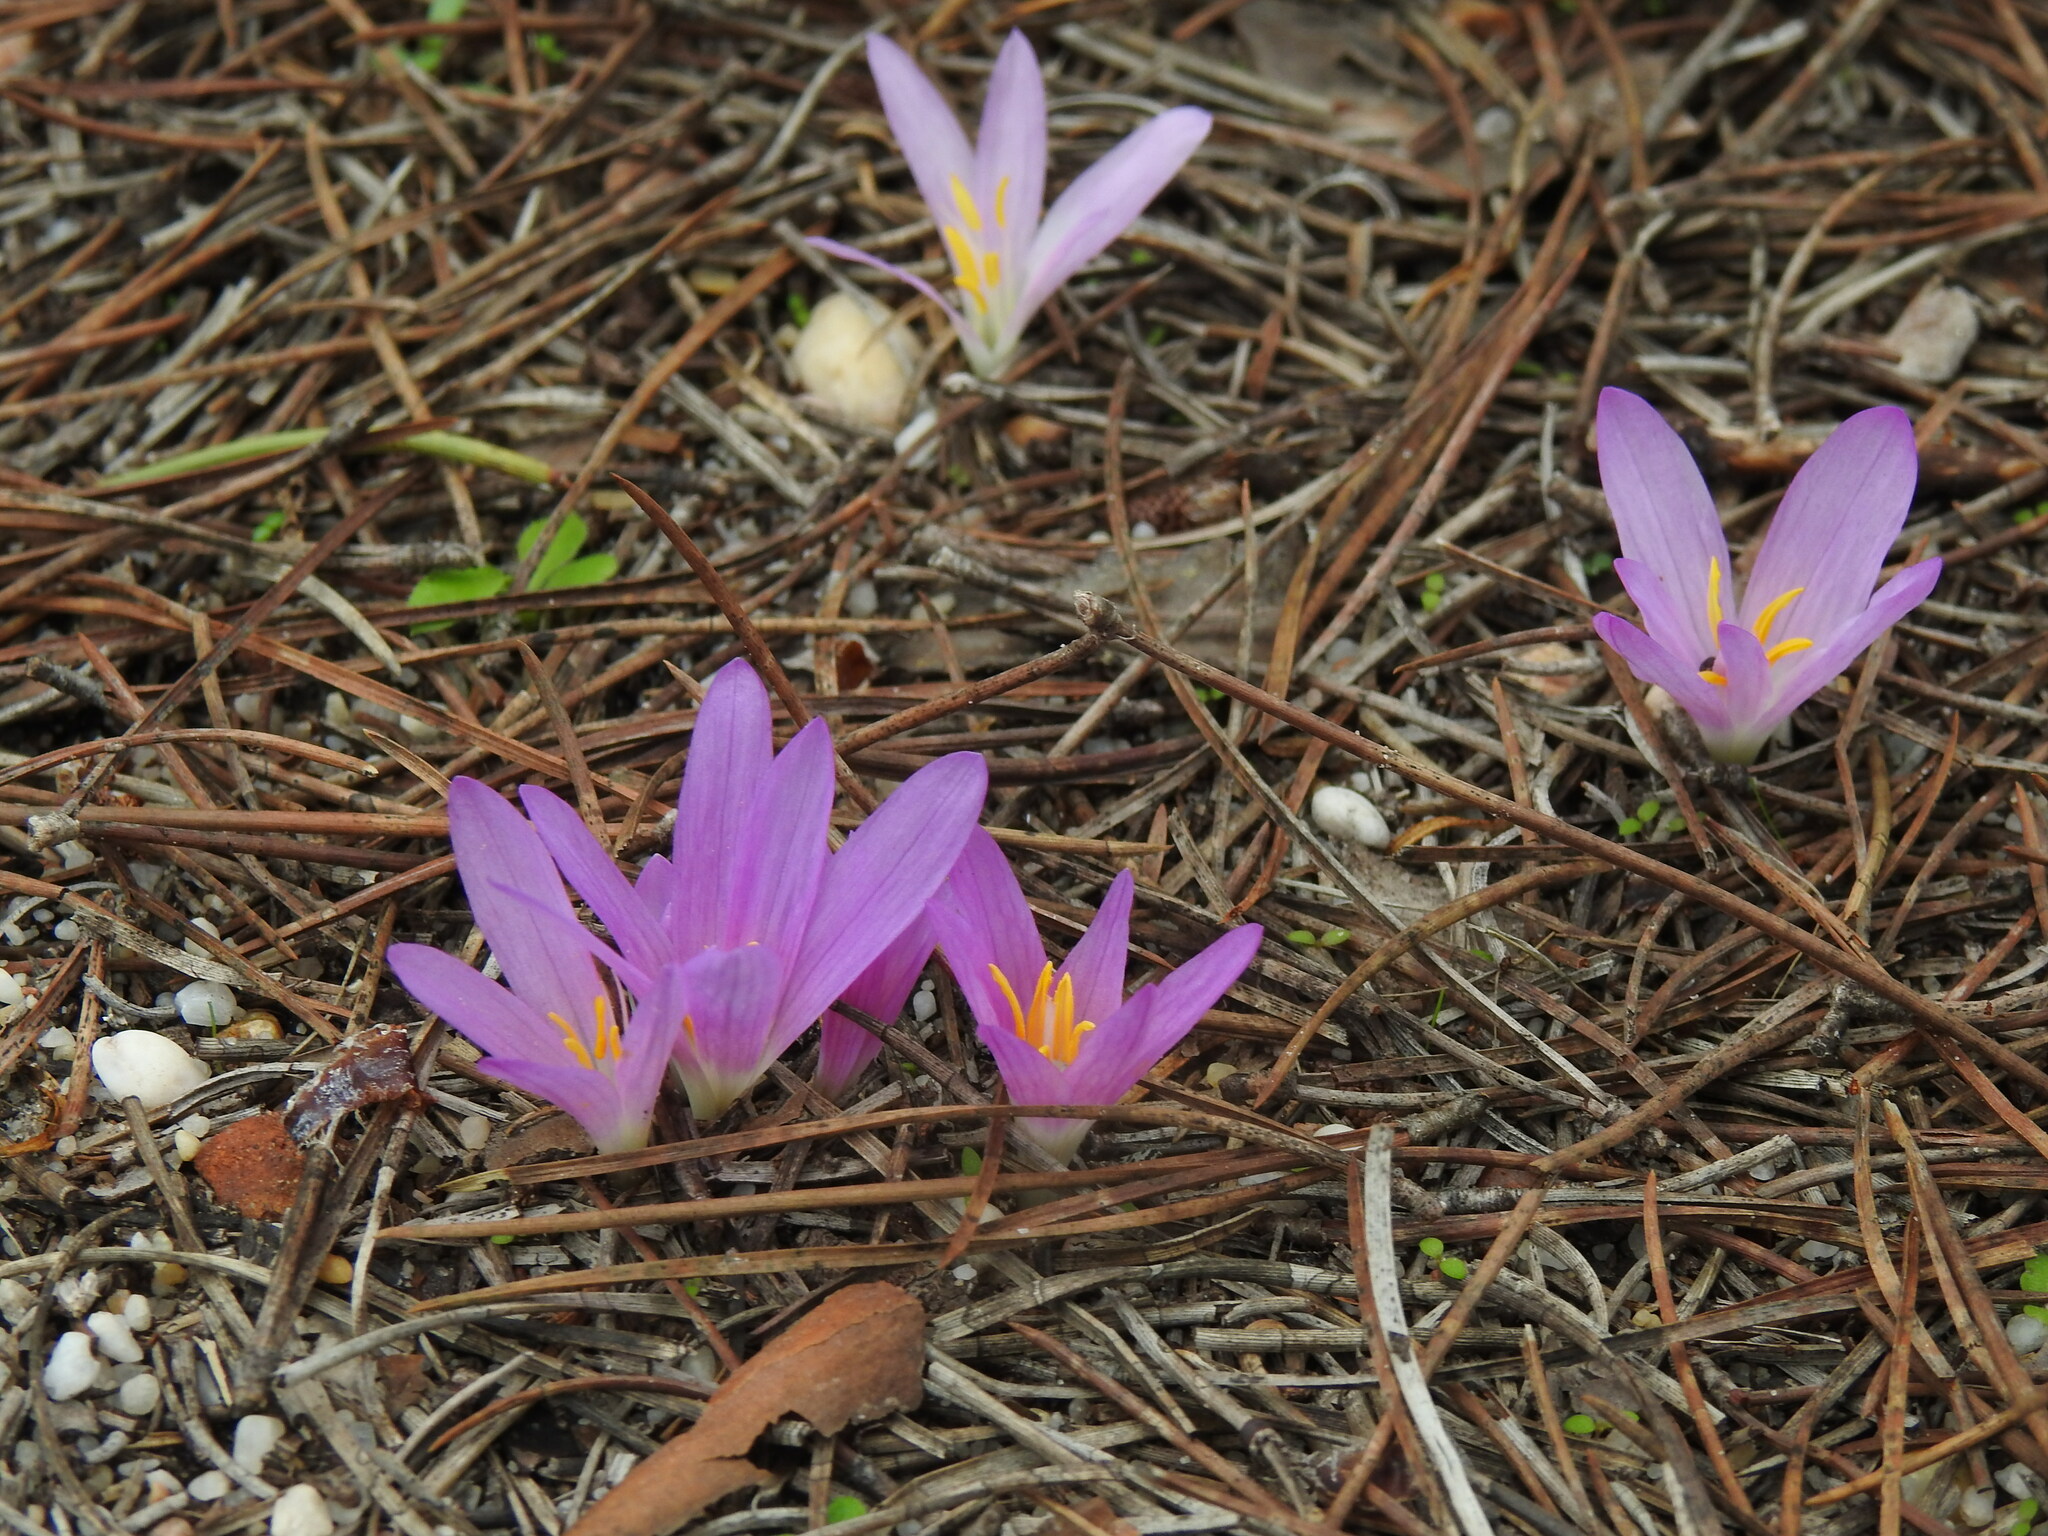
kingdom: Plantae
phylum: Tracheophyta
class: Liliopsida
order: Liliales
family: Colchicaceae
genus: Colchicum
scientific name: Colchicum filifolium
